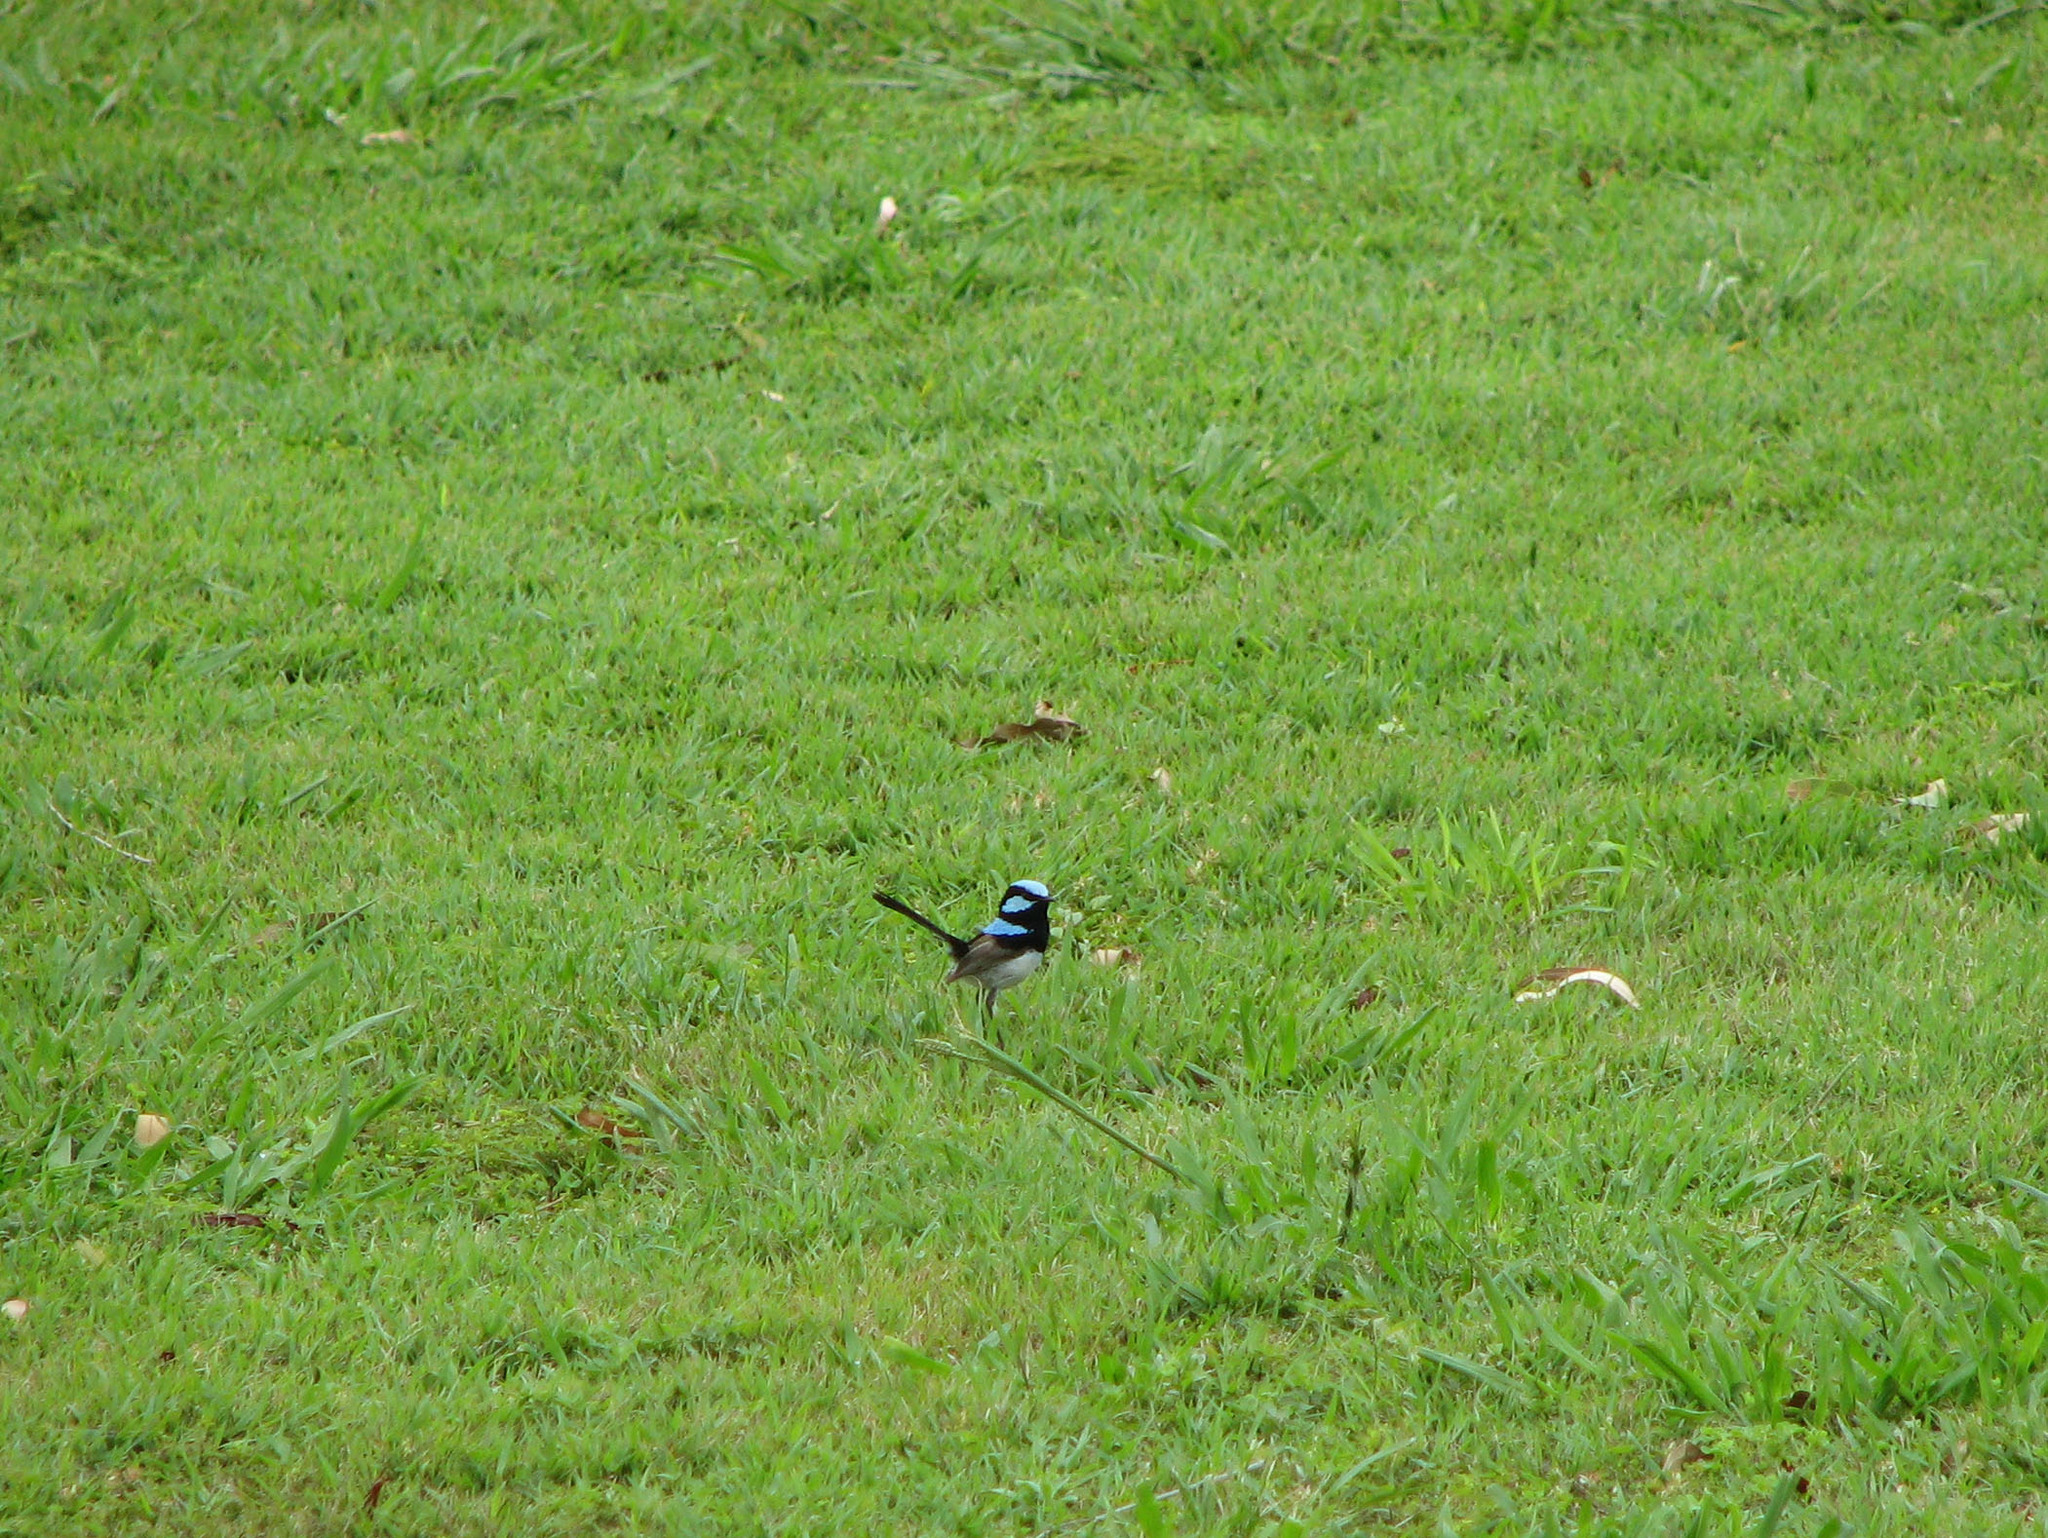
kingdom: Animalia
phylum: Chordata
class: Aves
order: Passeriformes
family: Maluridae
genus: Malurus
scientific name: Malurus cyaneus
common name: Superb fairywren
